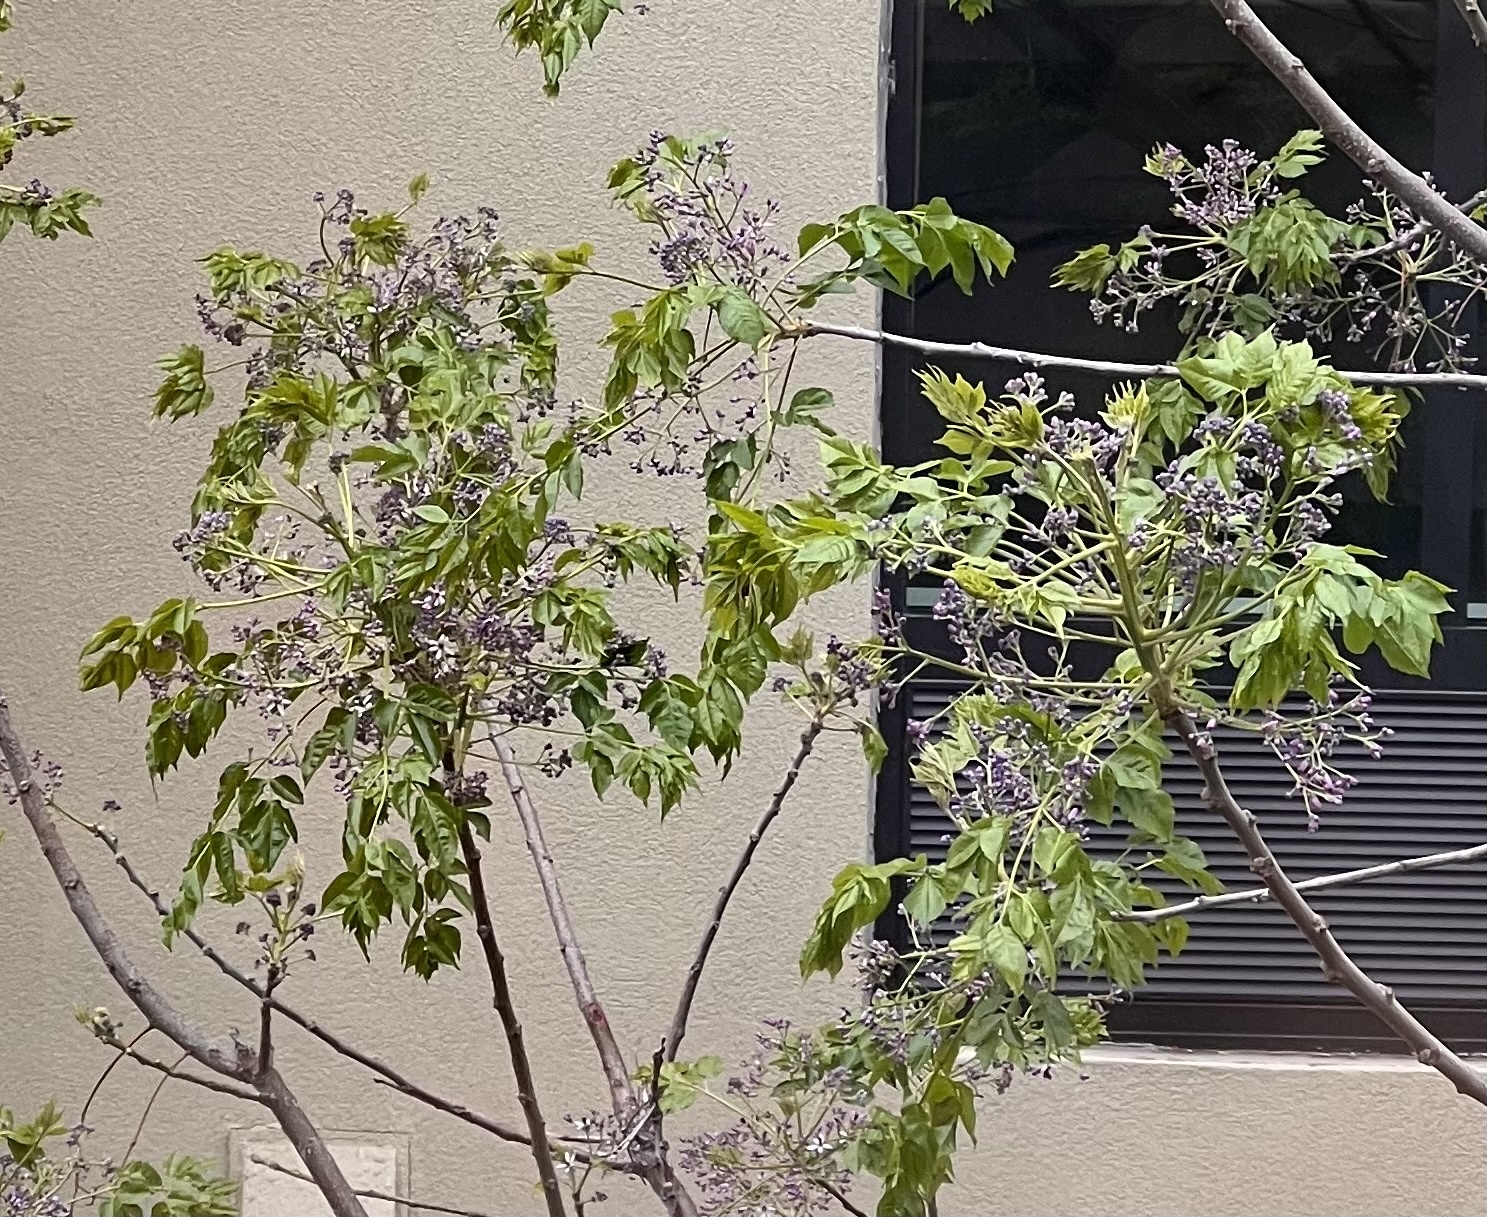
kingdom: Plantae
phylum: Tracheophyta
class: Magnoliopsida
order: Sapindales
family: Meliaceae
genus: Melia
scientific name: Melia azedarach
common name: Chinaberrytree
